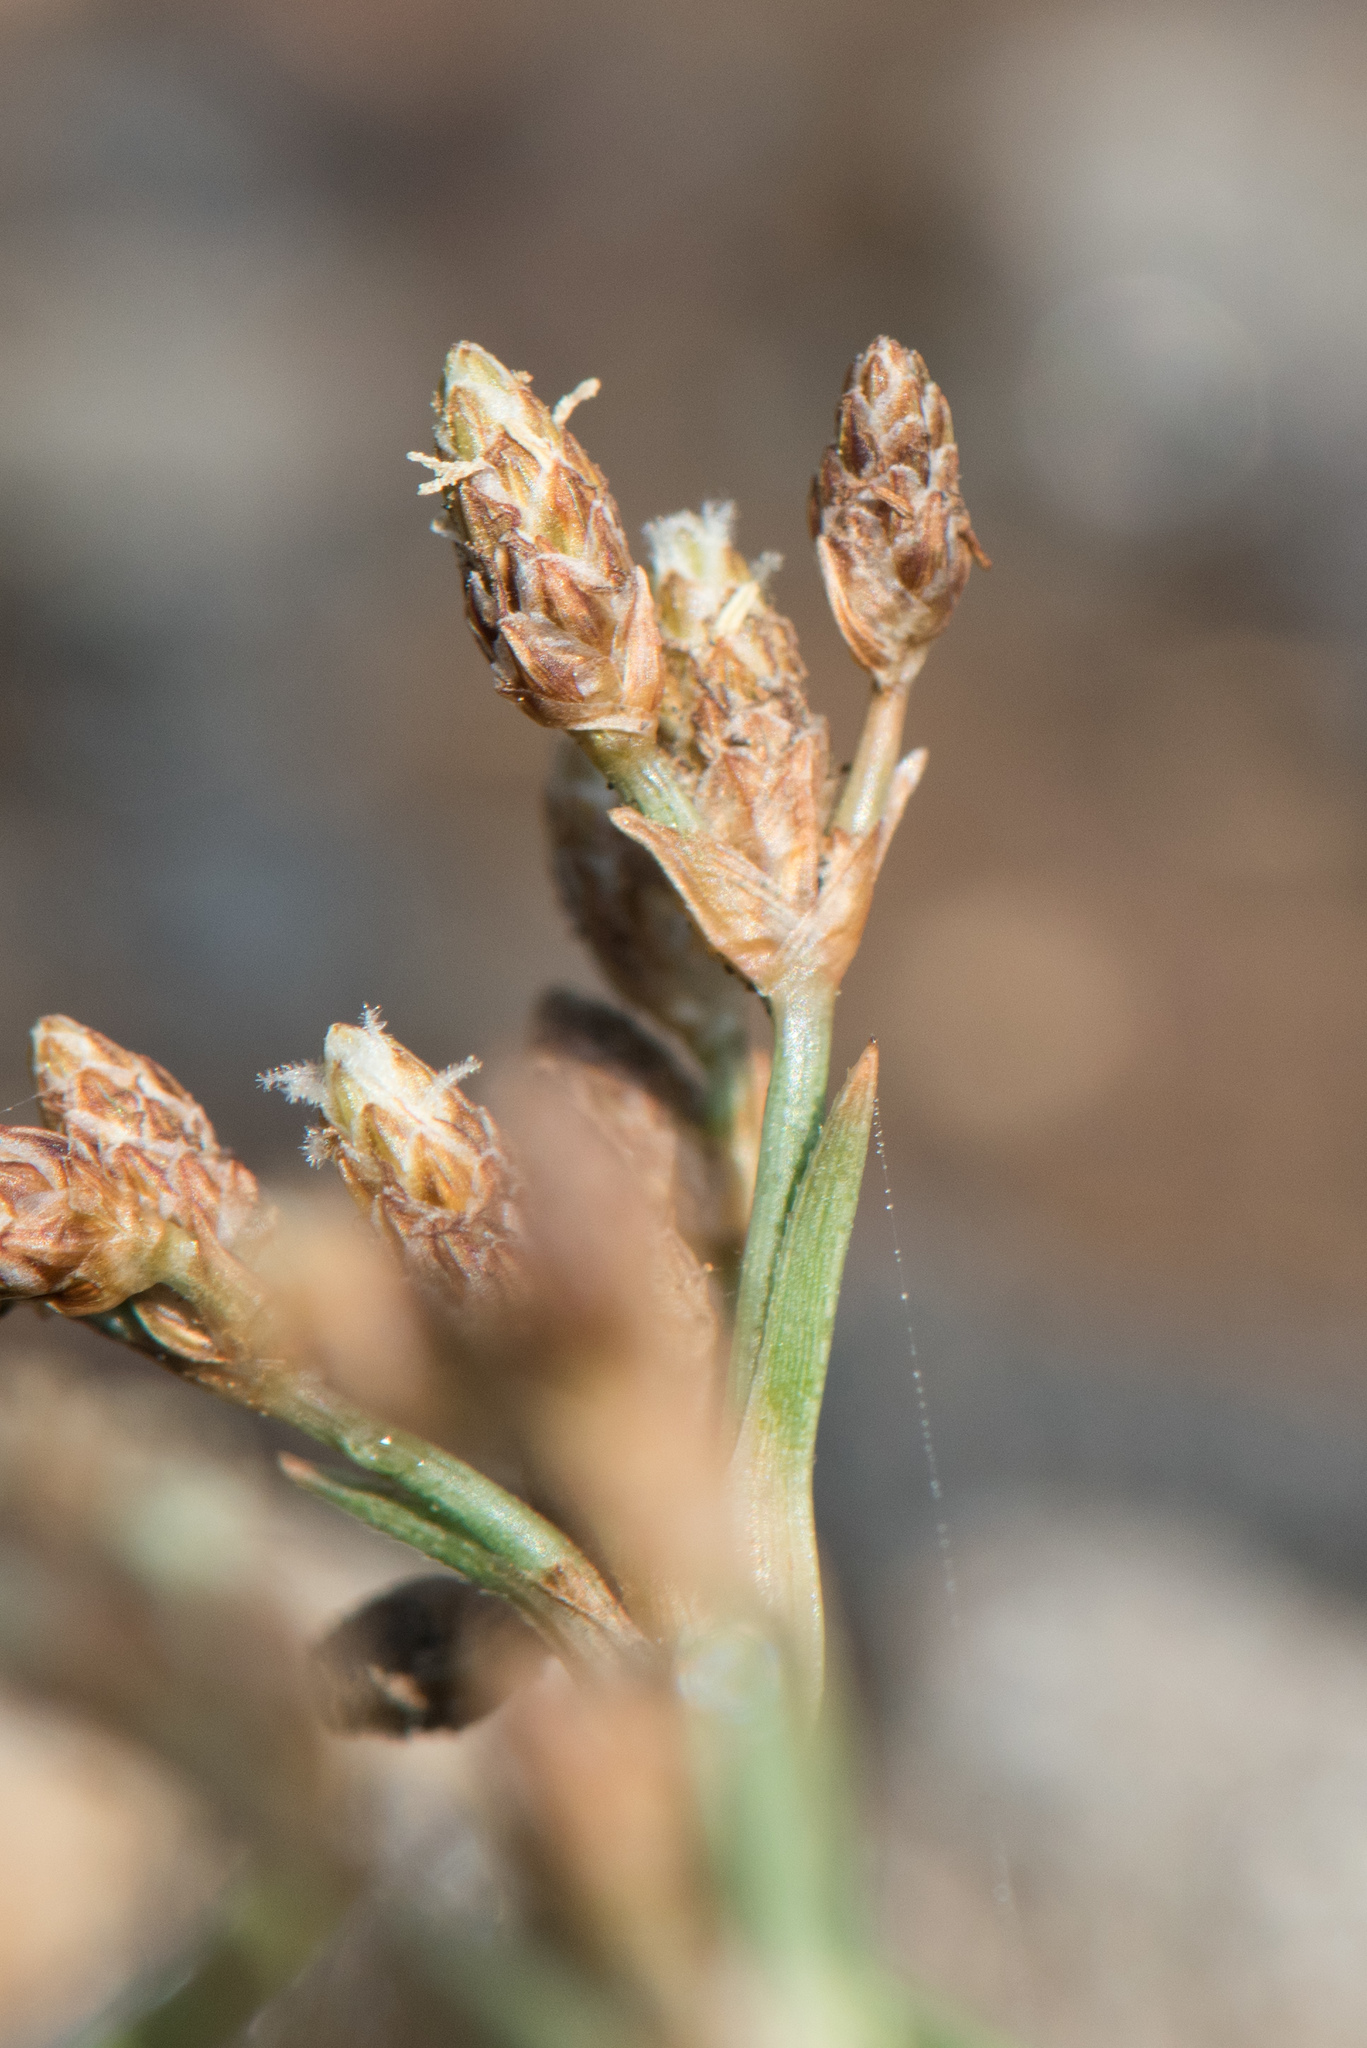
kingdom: Plantae
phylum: Tracheophyta
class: Liliopsida
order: Poales
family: Cyperaceae
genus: Fimbristylis
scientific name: Fimbristylis cymosa
